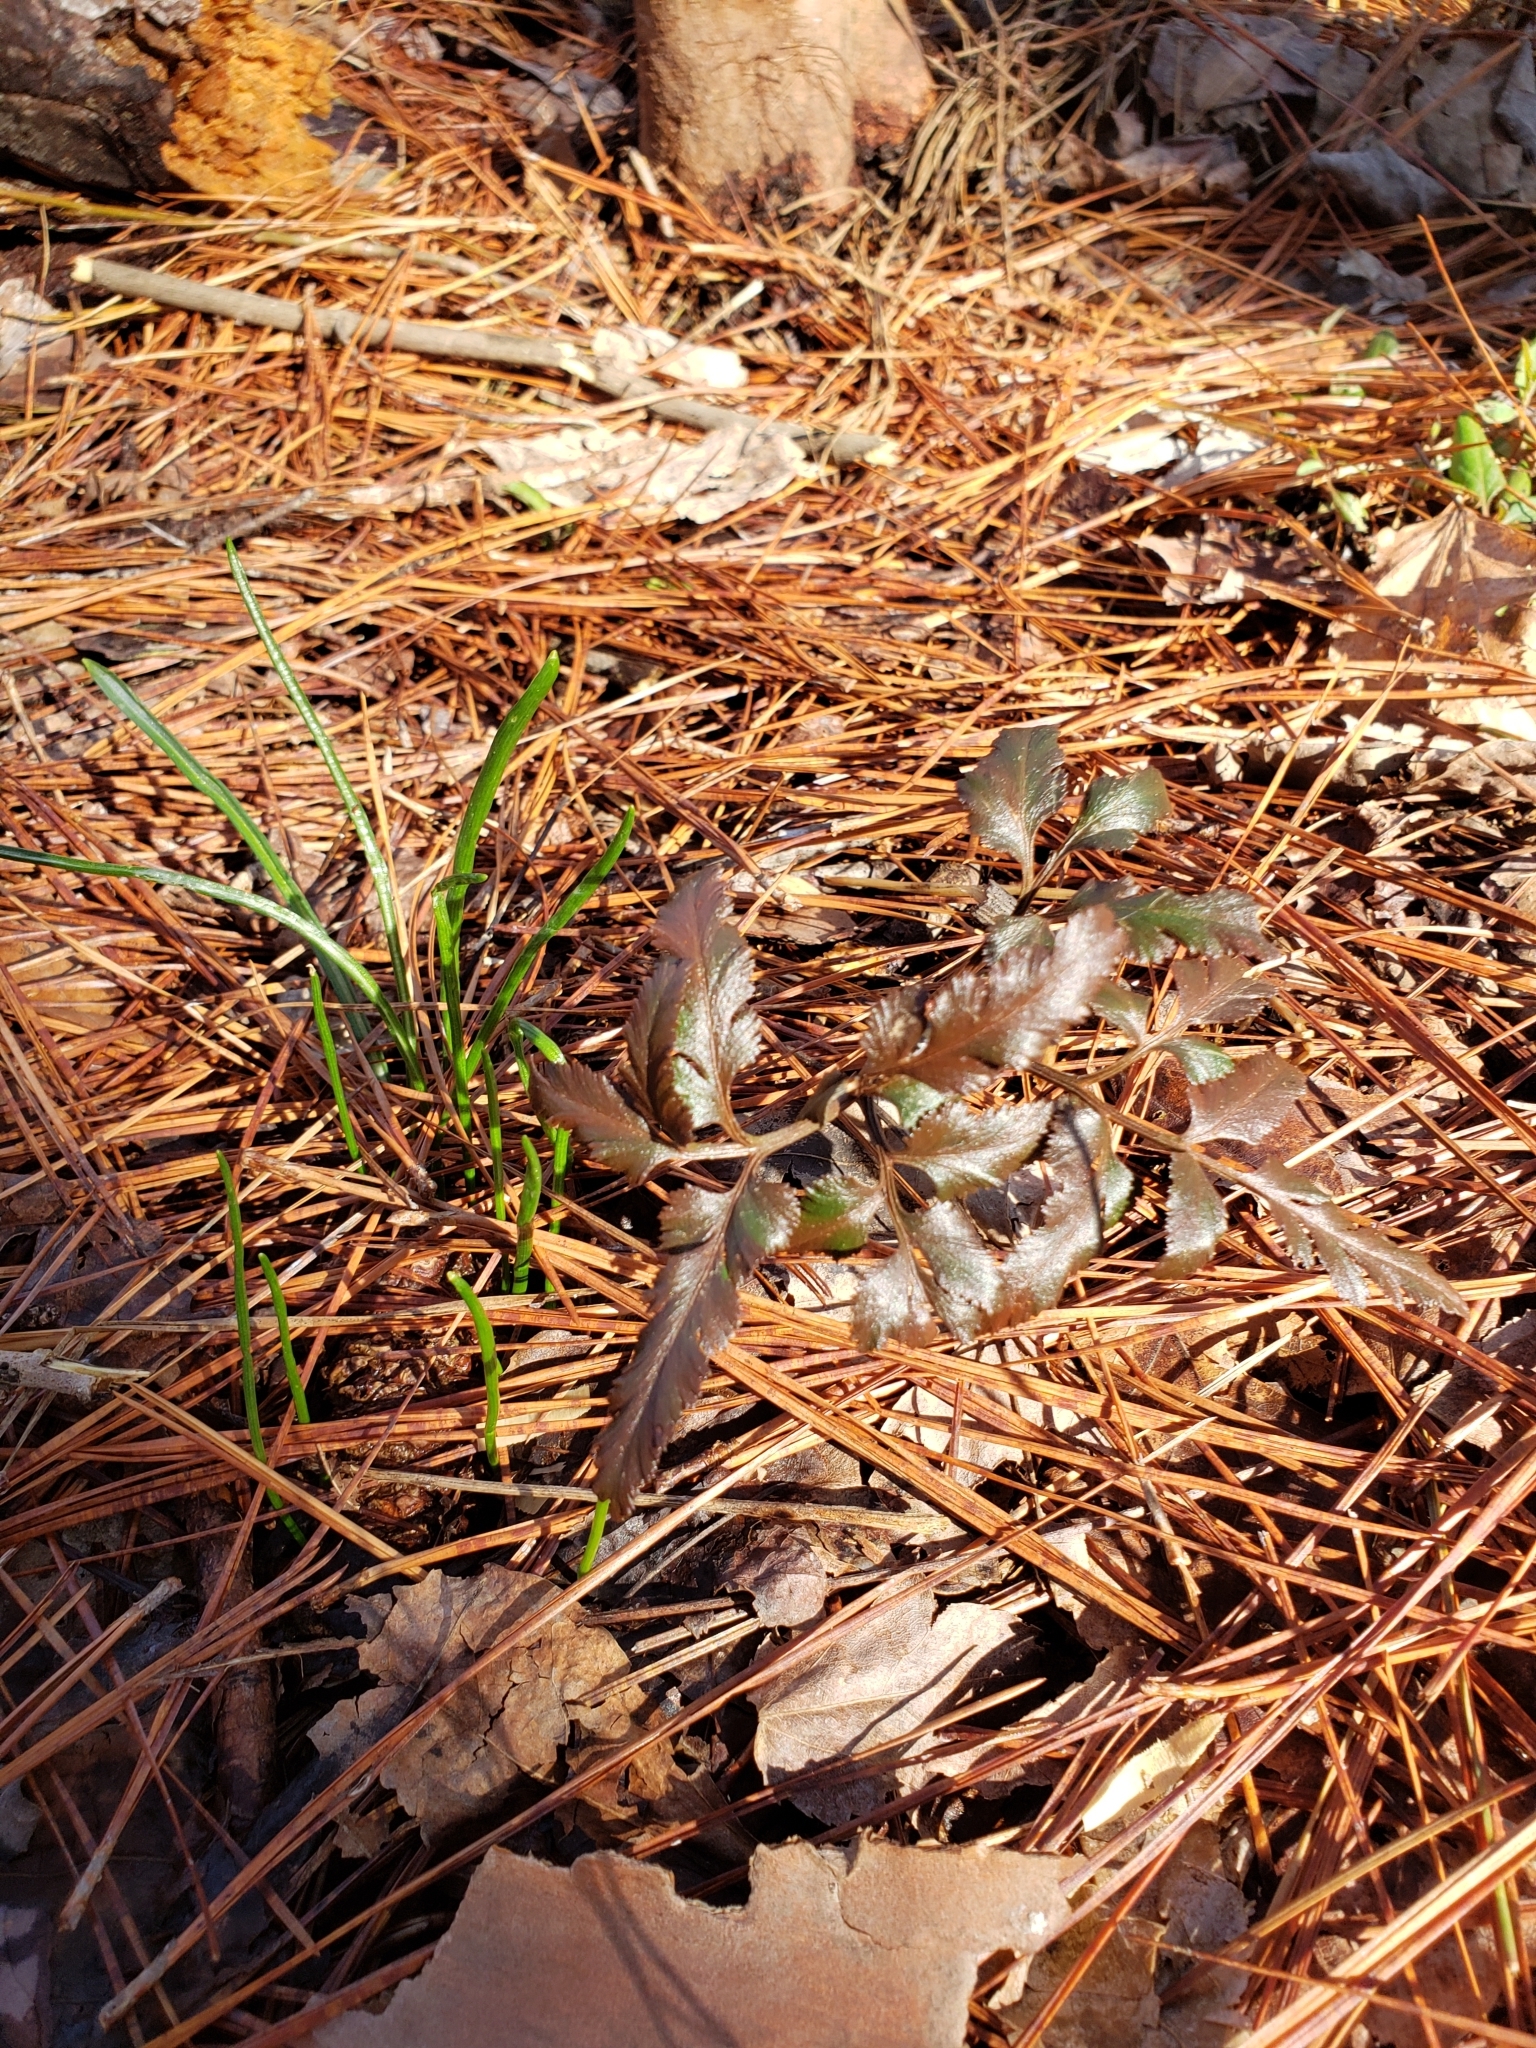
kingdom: Plantae
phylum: Tracheophyta
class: Polypodiopsida
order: Ophioglossales
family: Ophioglossaceae
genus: Sceptridium
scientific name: Sceptridium biternatum
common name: Sparse-lobed grapefern
